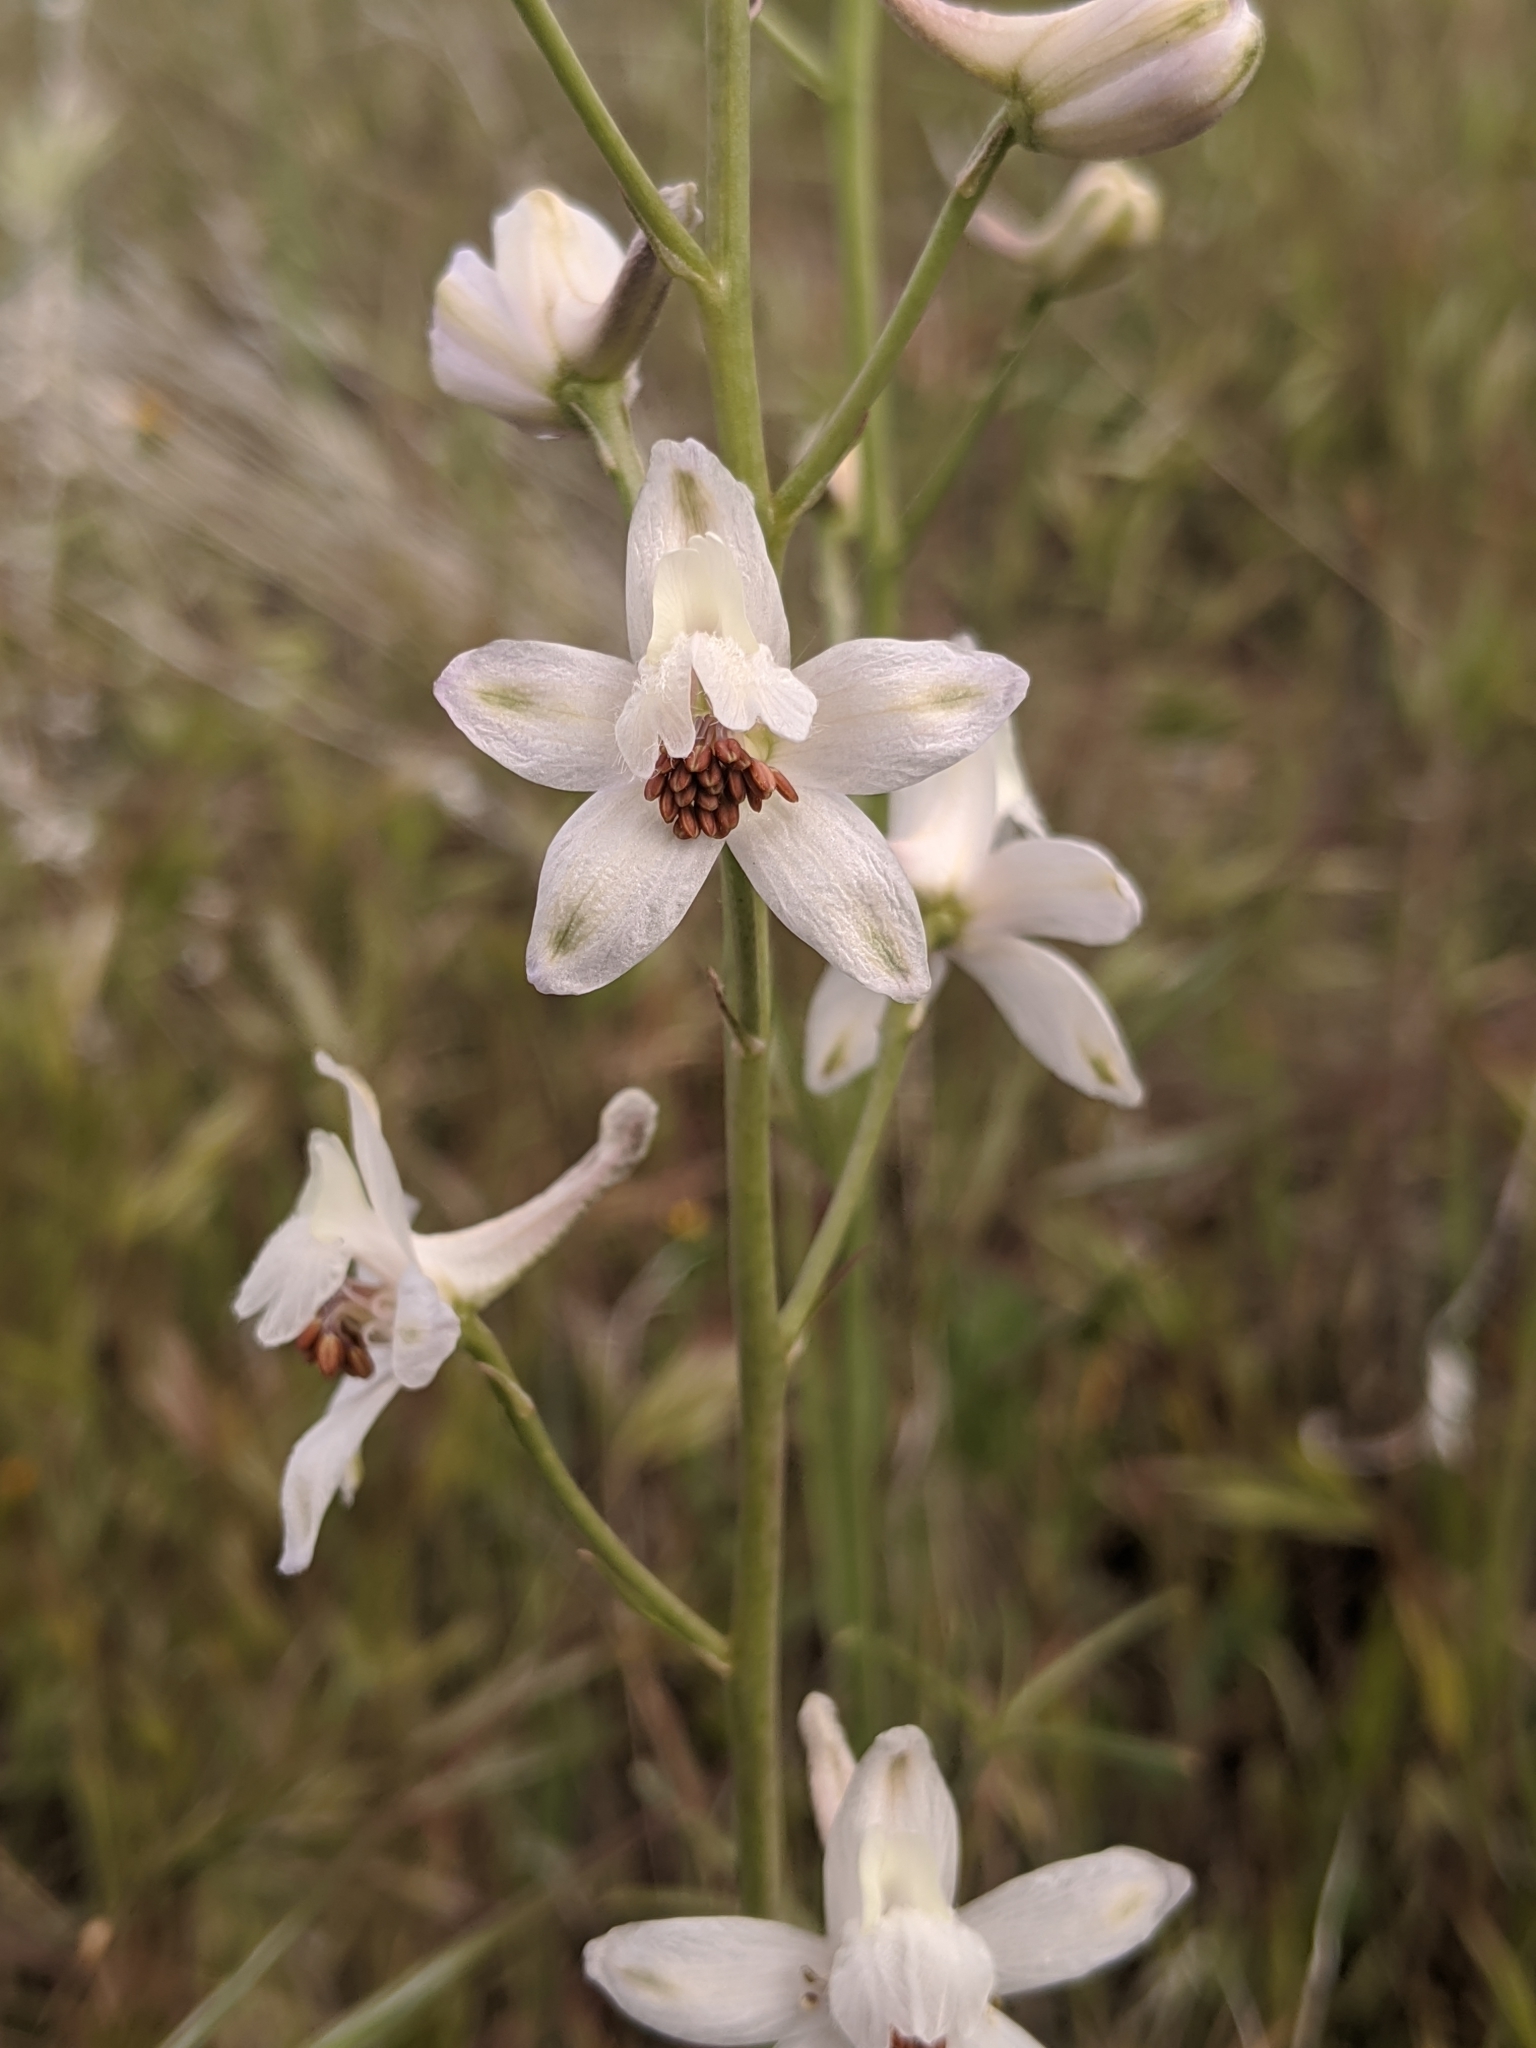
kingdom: Plantae
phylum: Tracheophyta
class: Magnoliopsida
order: Ranunculales
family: Ranunculaceae
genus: Delphinium
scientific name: Delphinium gypsophilum
